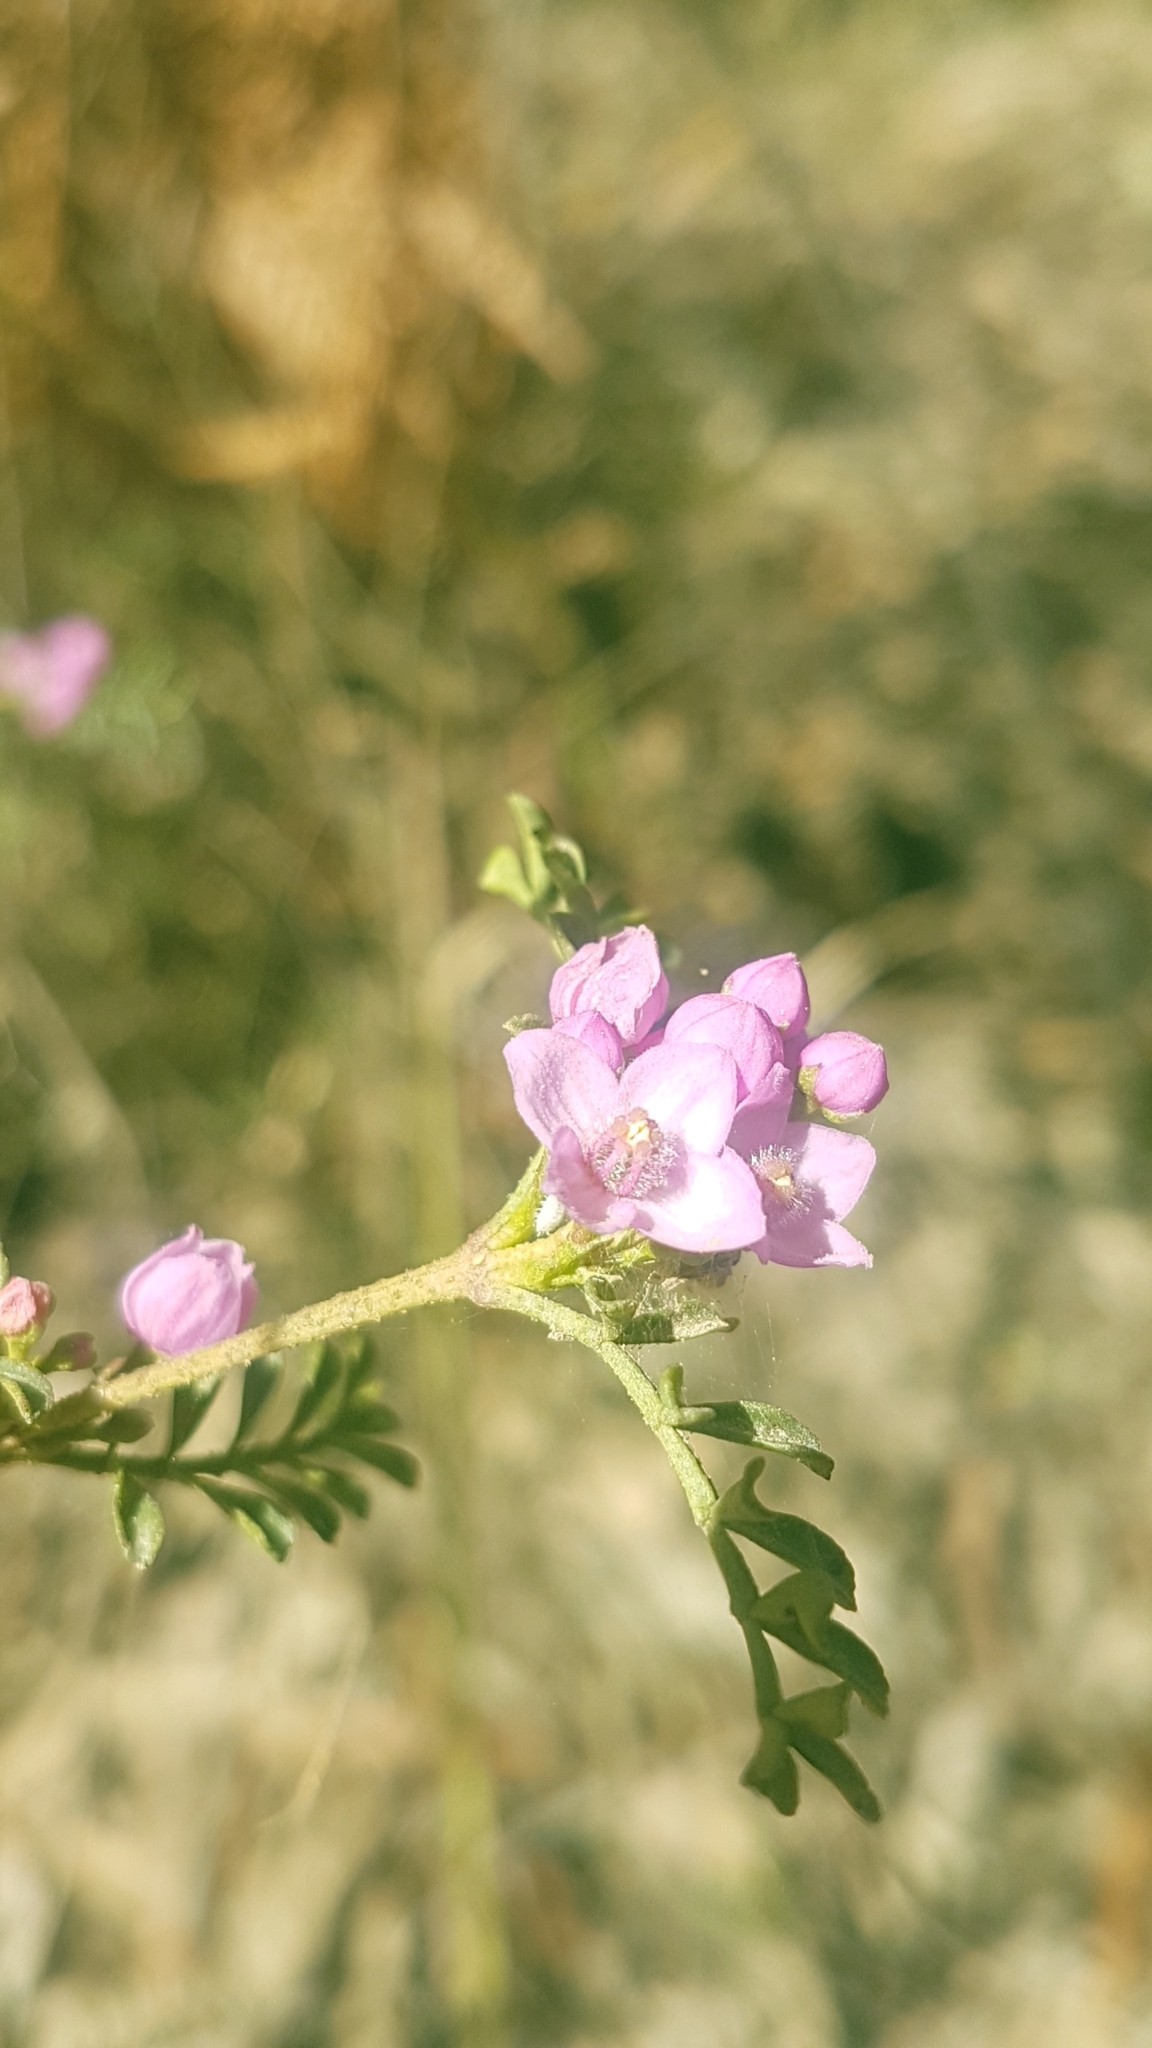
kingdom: Plantae
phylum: Tracheophyta
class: Magnoliopsida
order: Sapindales
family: Rutaceae
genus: Boronia
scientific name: Boronia microphylla
